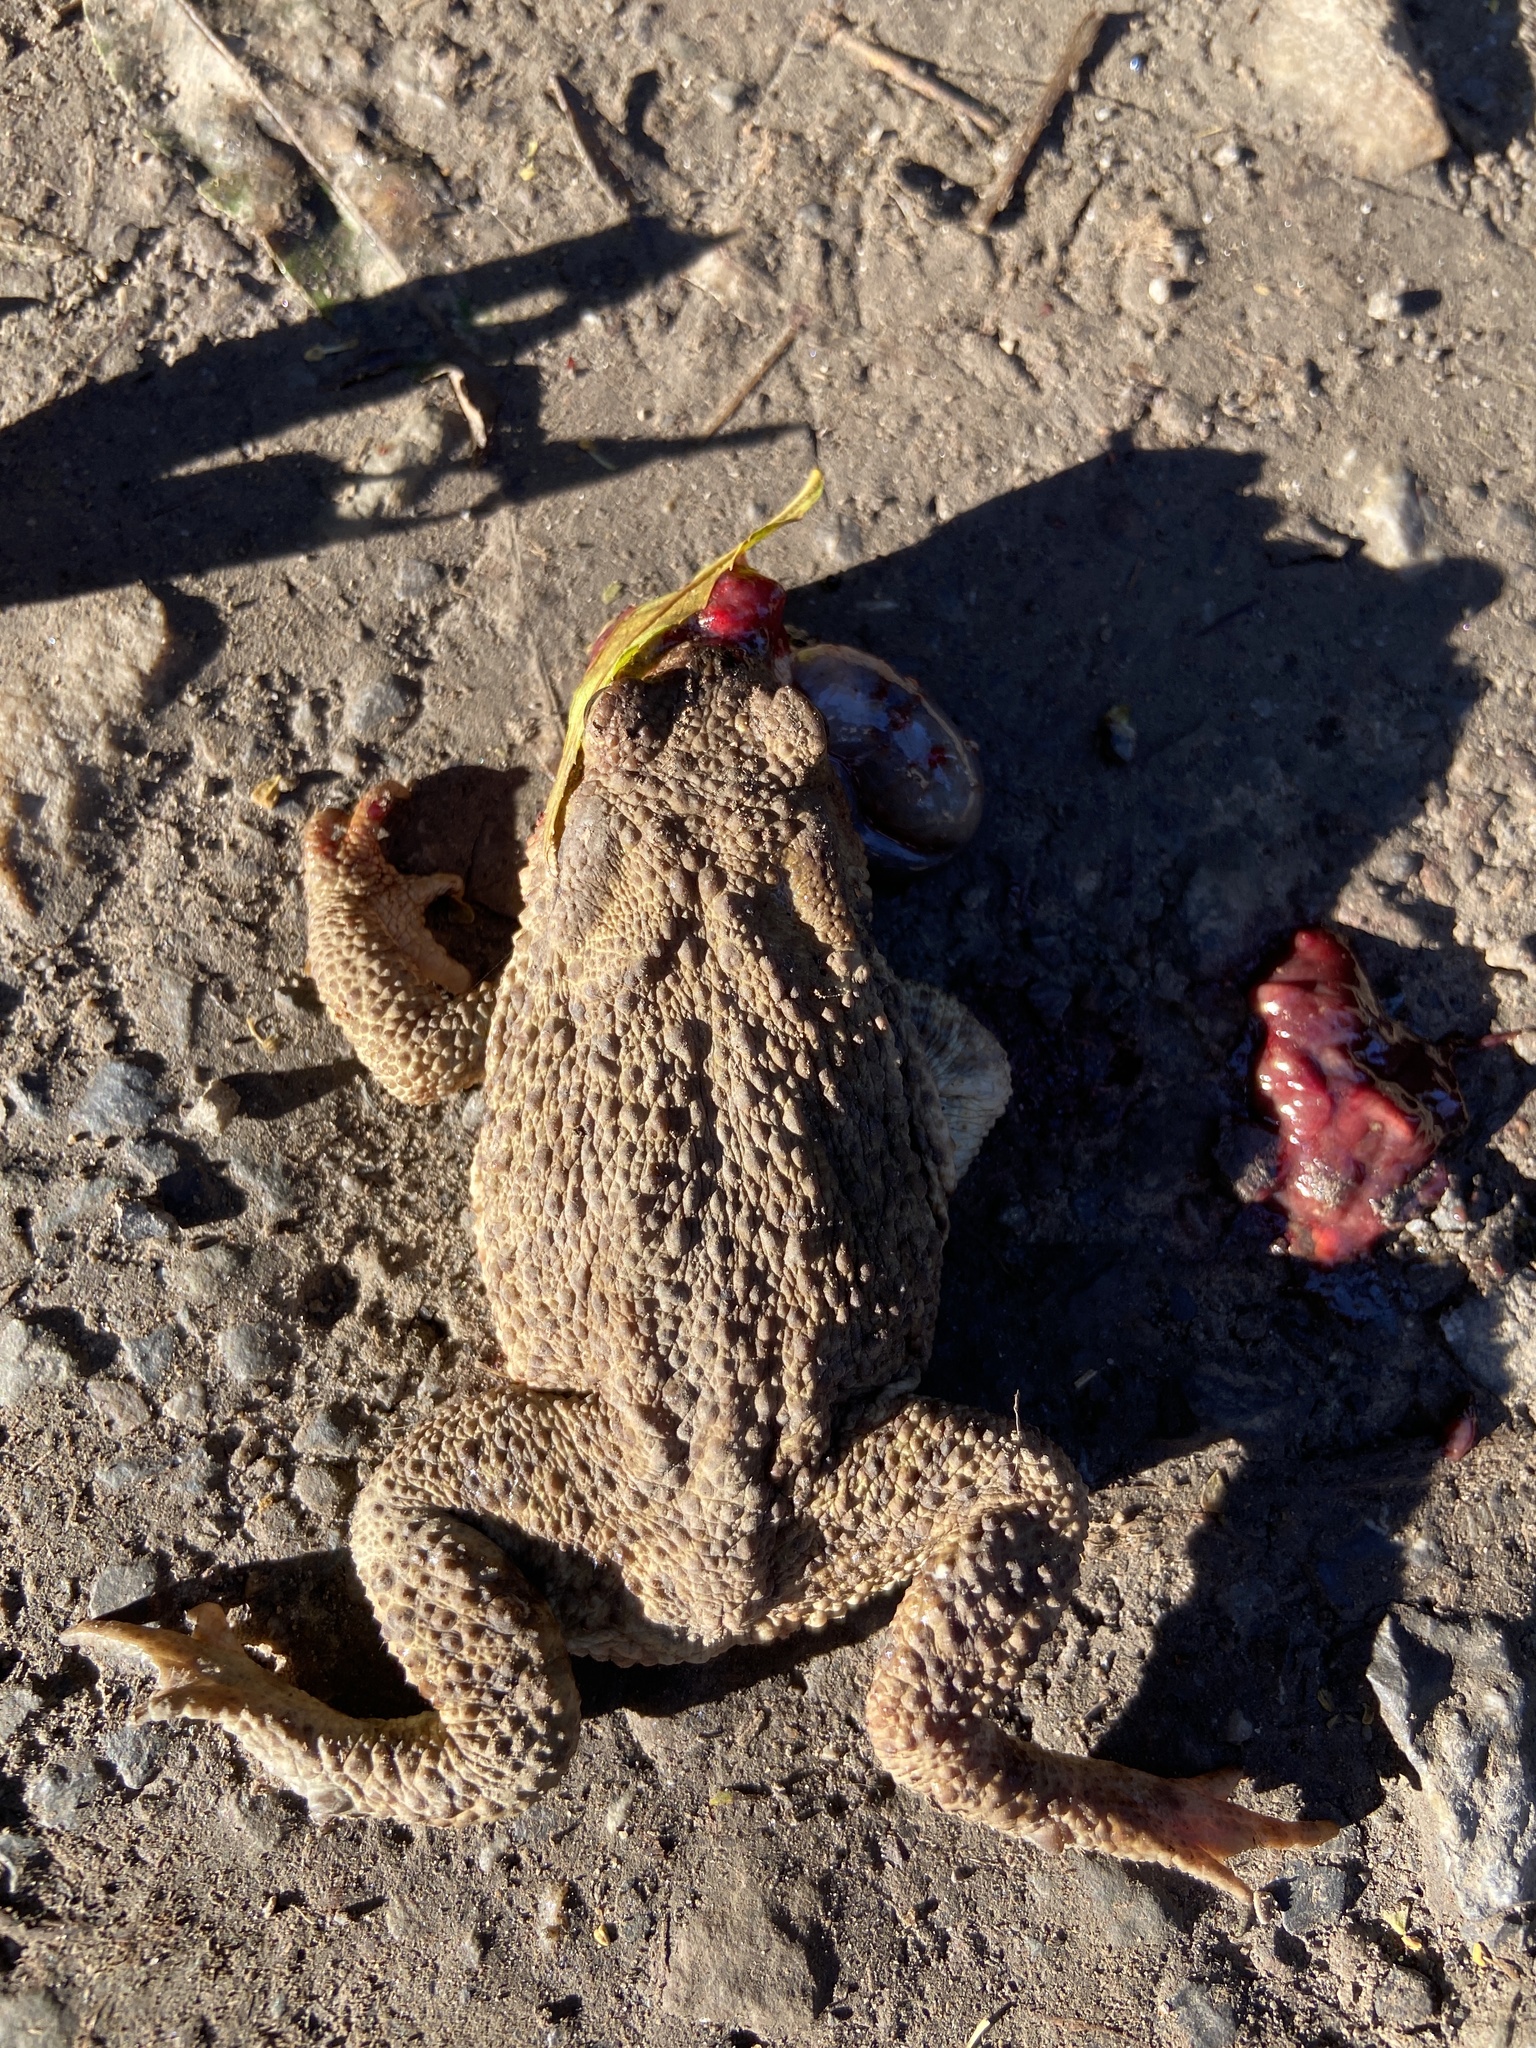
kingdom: Animalia
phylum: Chordata
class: Amphibia
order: Anura
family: Bufonidae
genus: Bufo
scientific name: Bufo bufo
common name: Common toad
